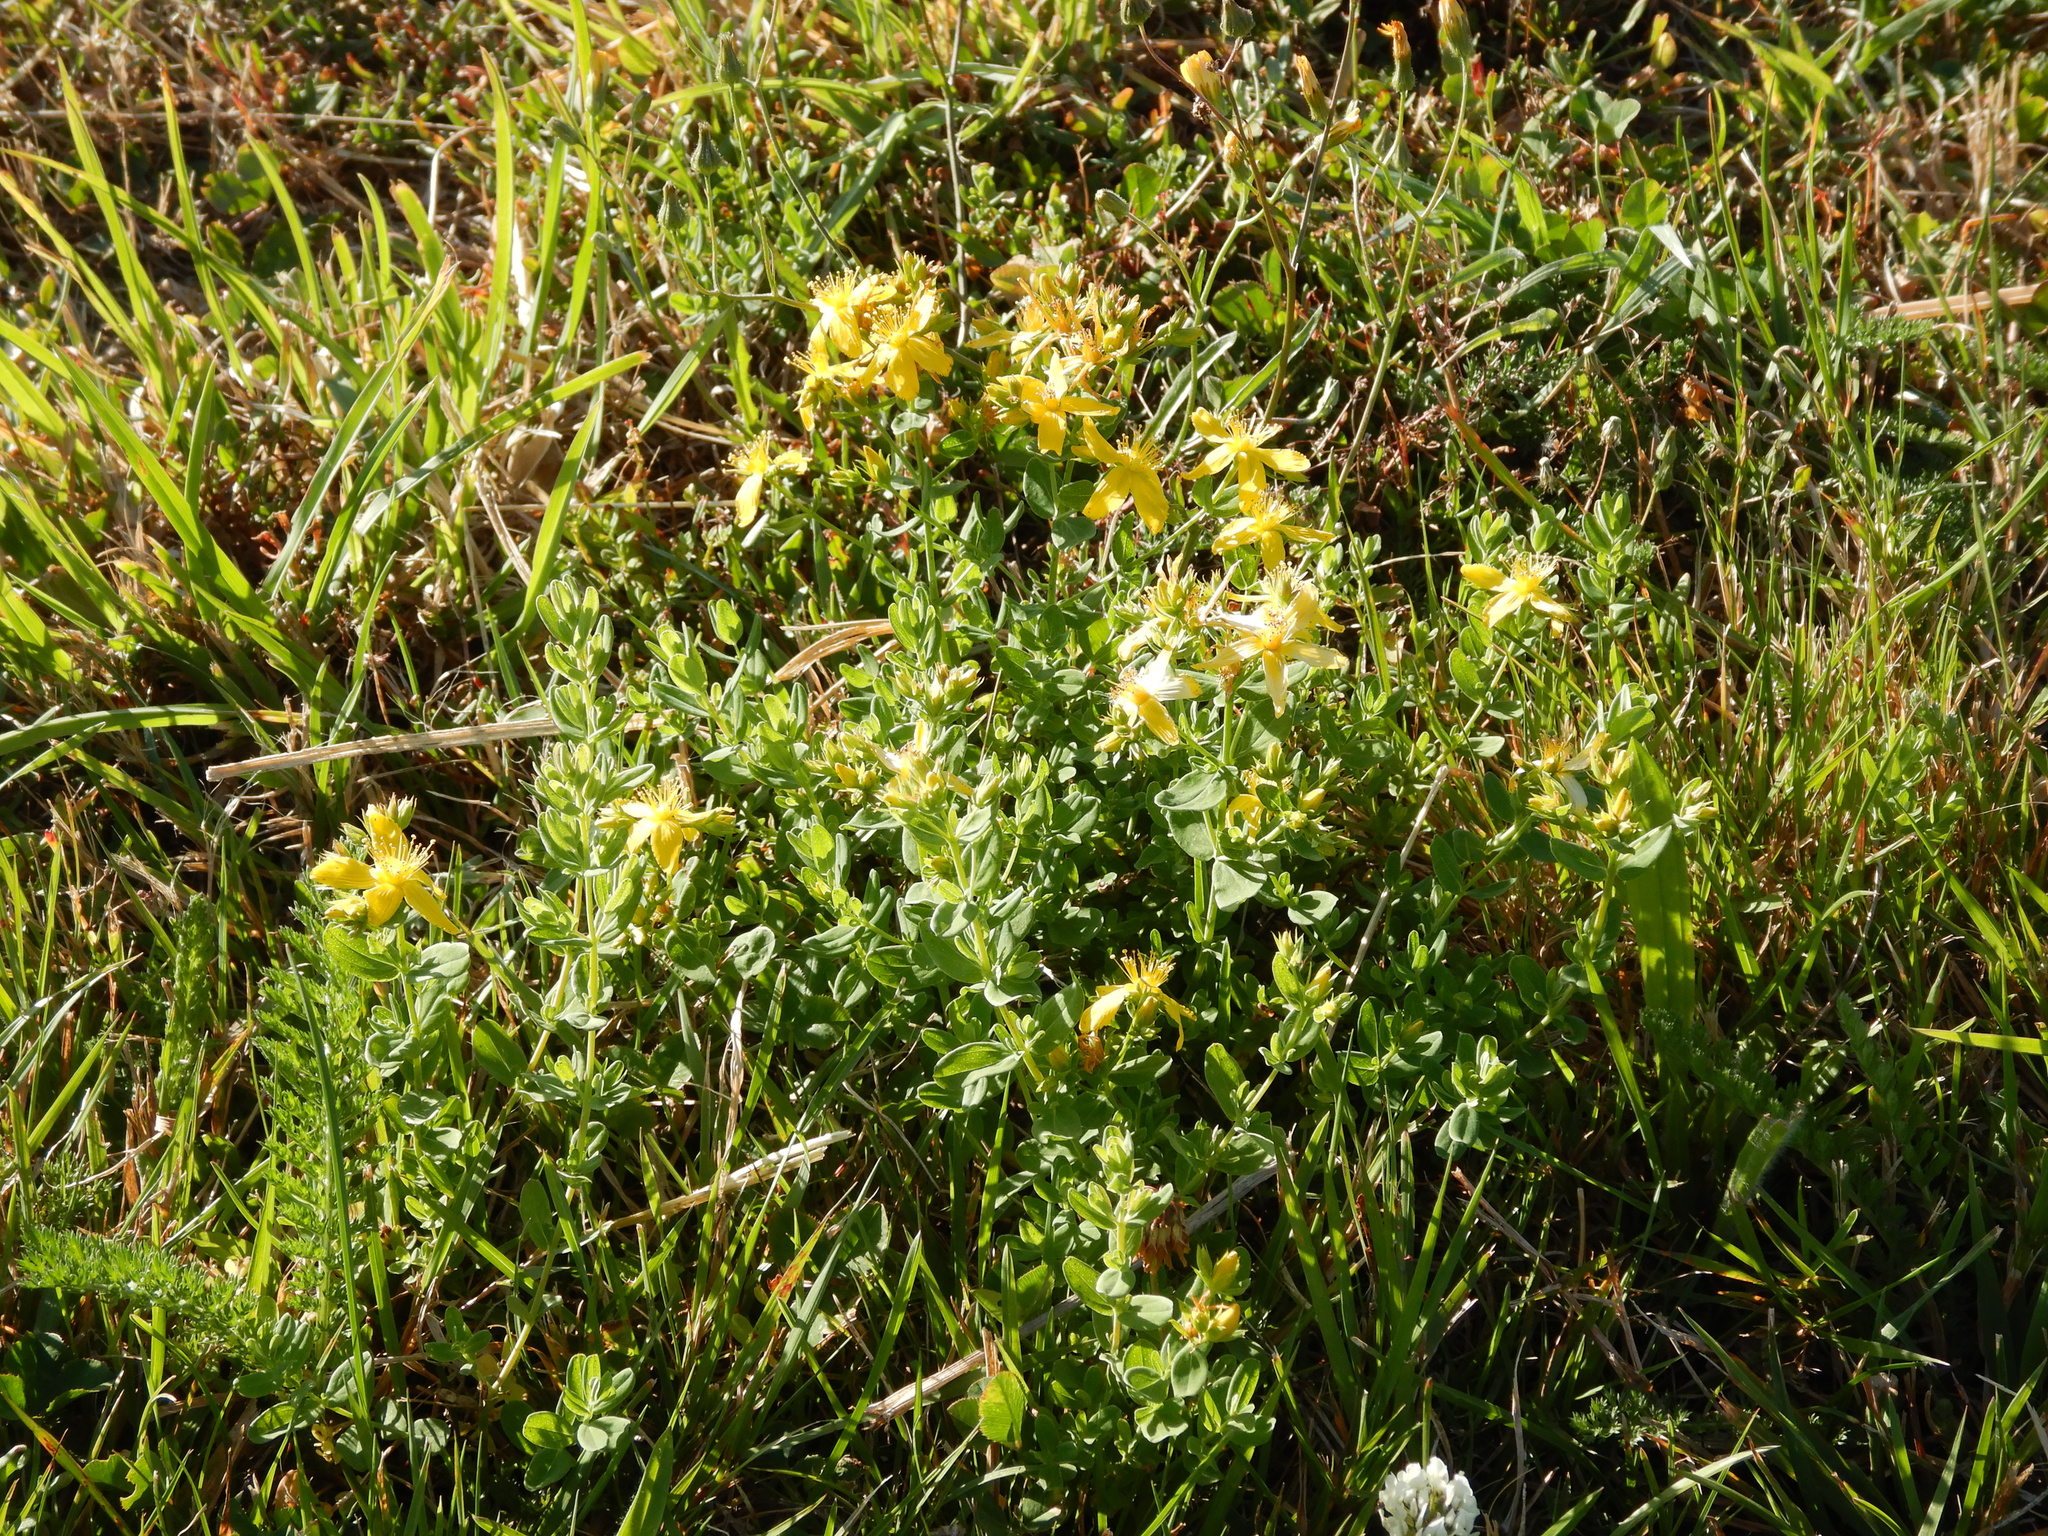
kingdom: Plantae
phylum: Tracheophyta
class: Magnoliopsida
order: Malpighiales
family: Hypericaceae
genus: Hypericum
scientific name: Hypericum perforatum
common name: Common st. johnswort
